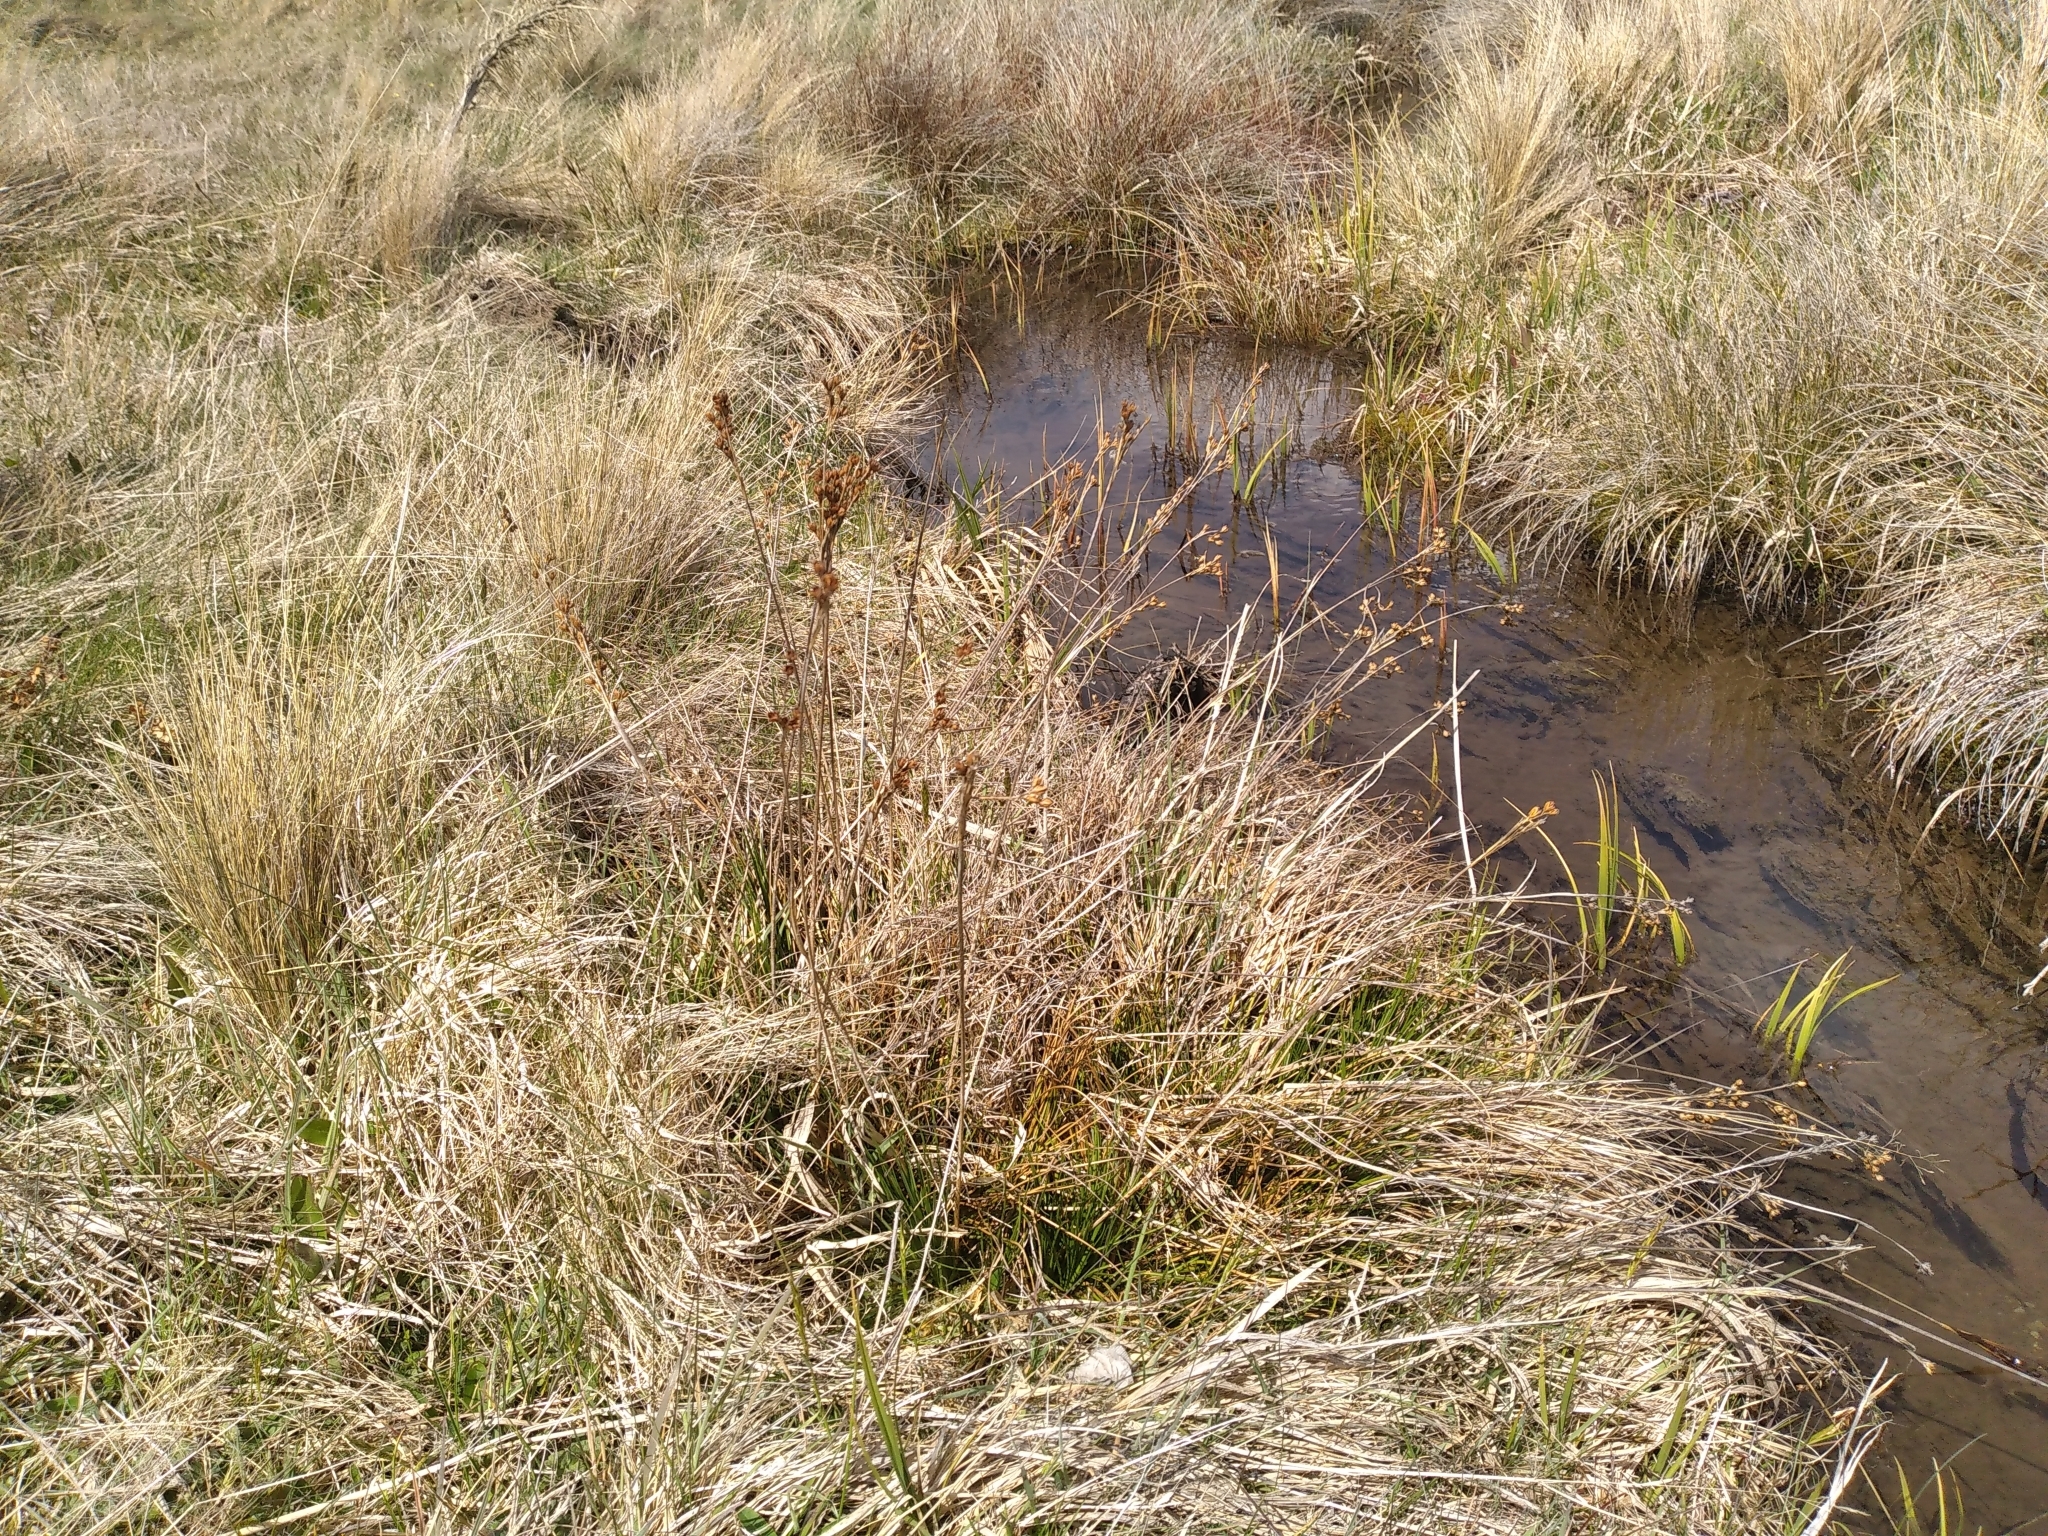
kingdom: Plantae
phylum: Tracheophyta
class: Liliopsida
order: Poales
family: Juncaceae
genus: Juncus
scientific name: Juncus squarrosus
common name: Heath rush
